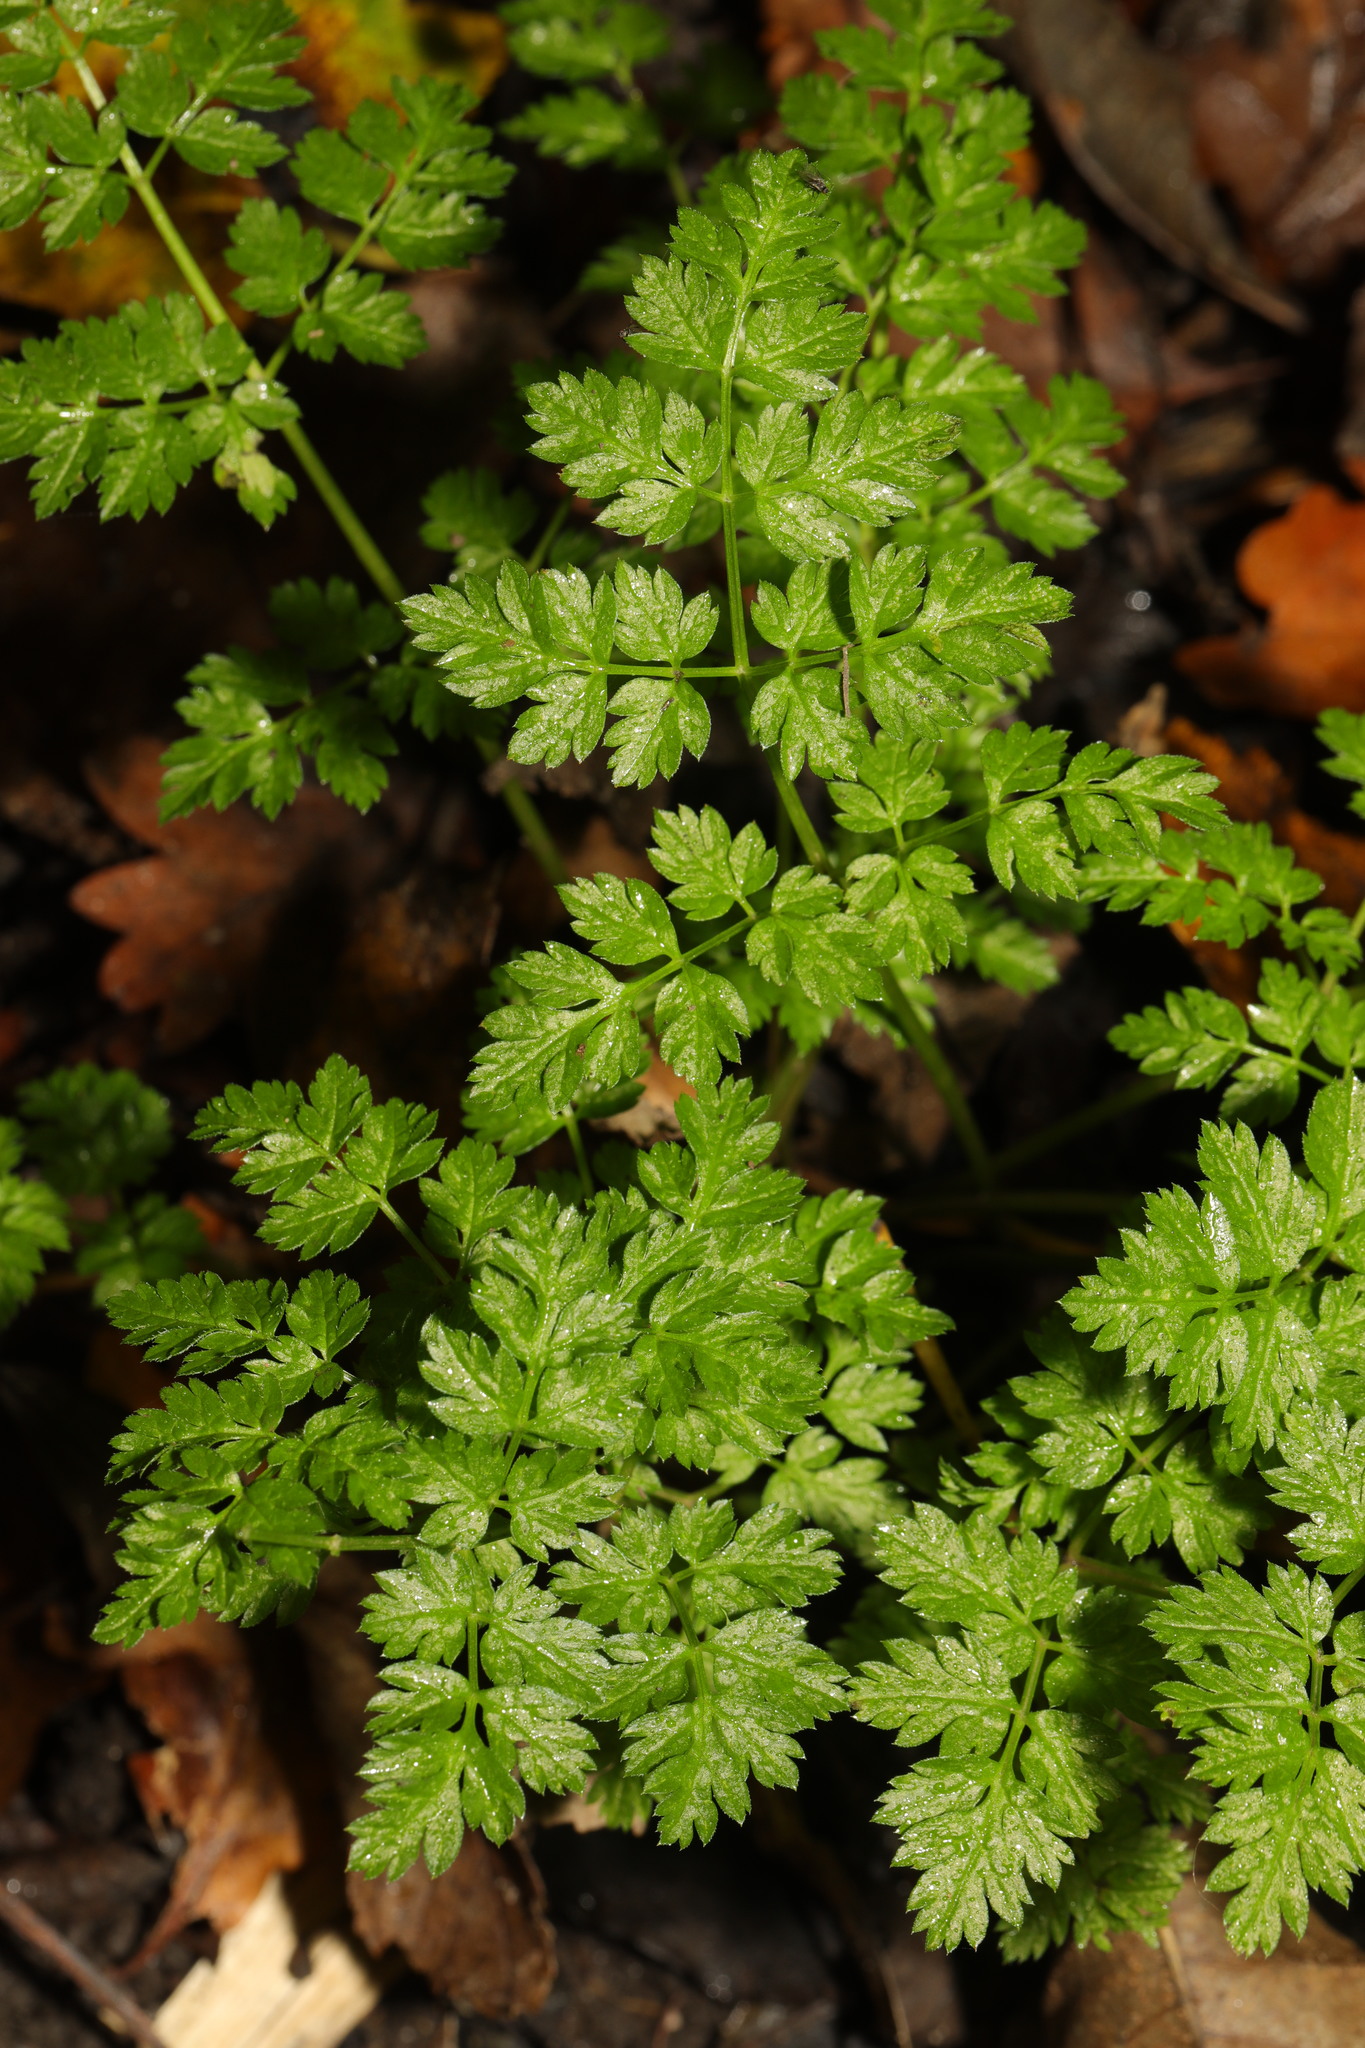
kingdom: Plantae
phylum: Tracheophyta
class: Magnoliopsida
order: Apiales
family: Apiaceae
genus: Anthriscus
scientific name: Anthriscus sylvestris
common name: Cow parsley
